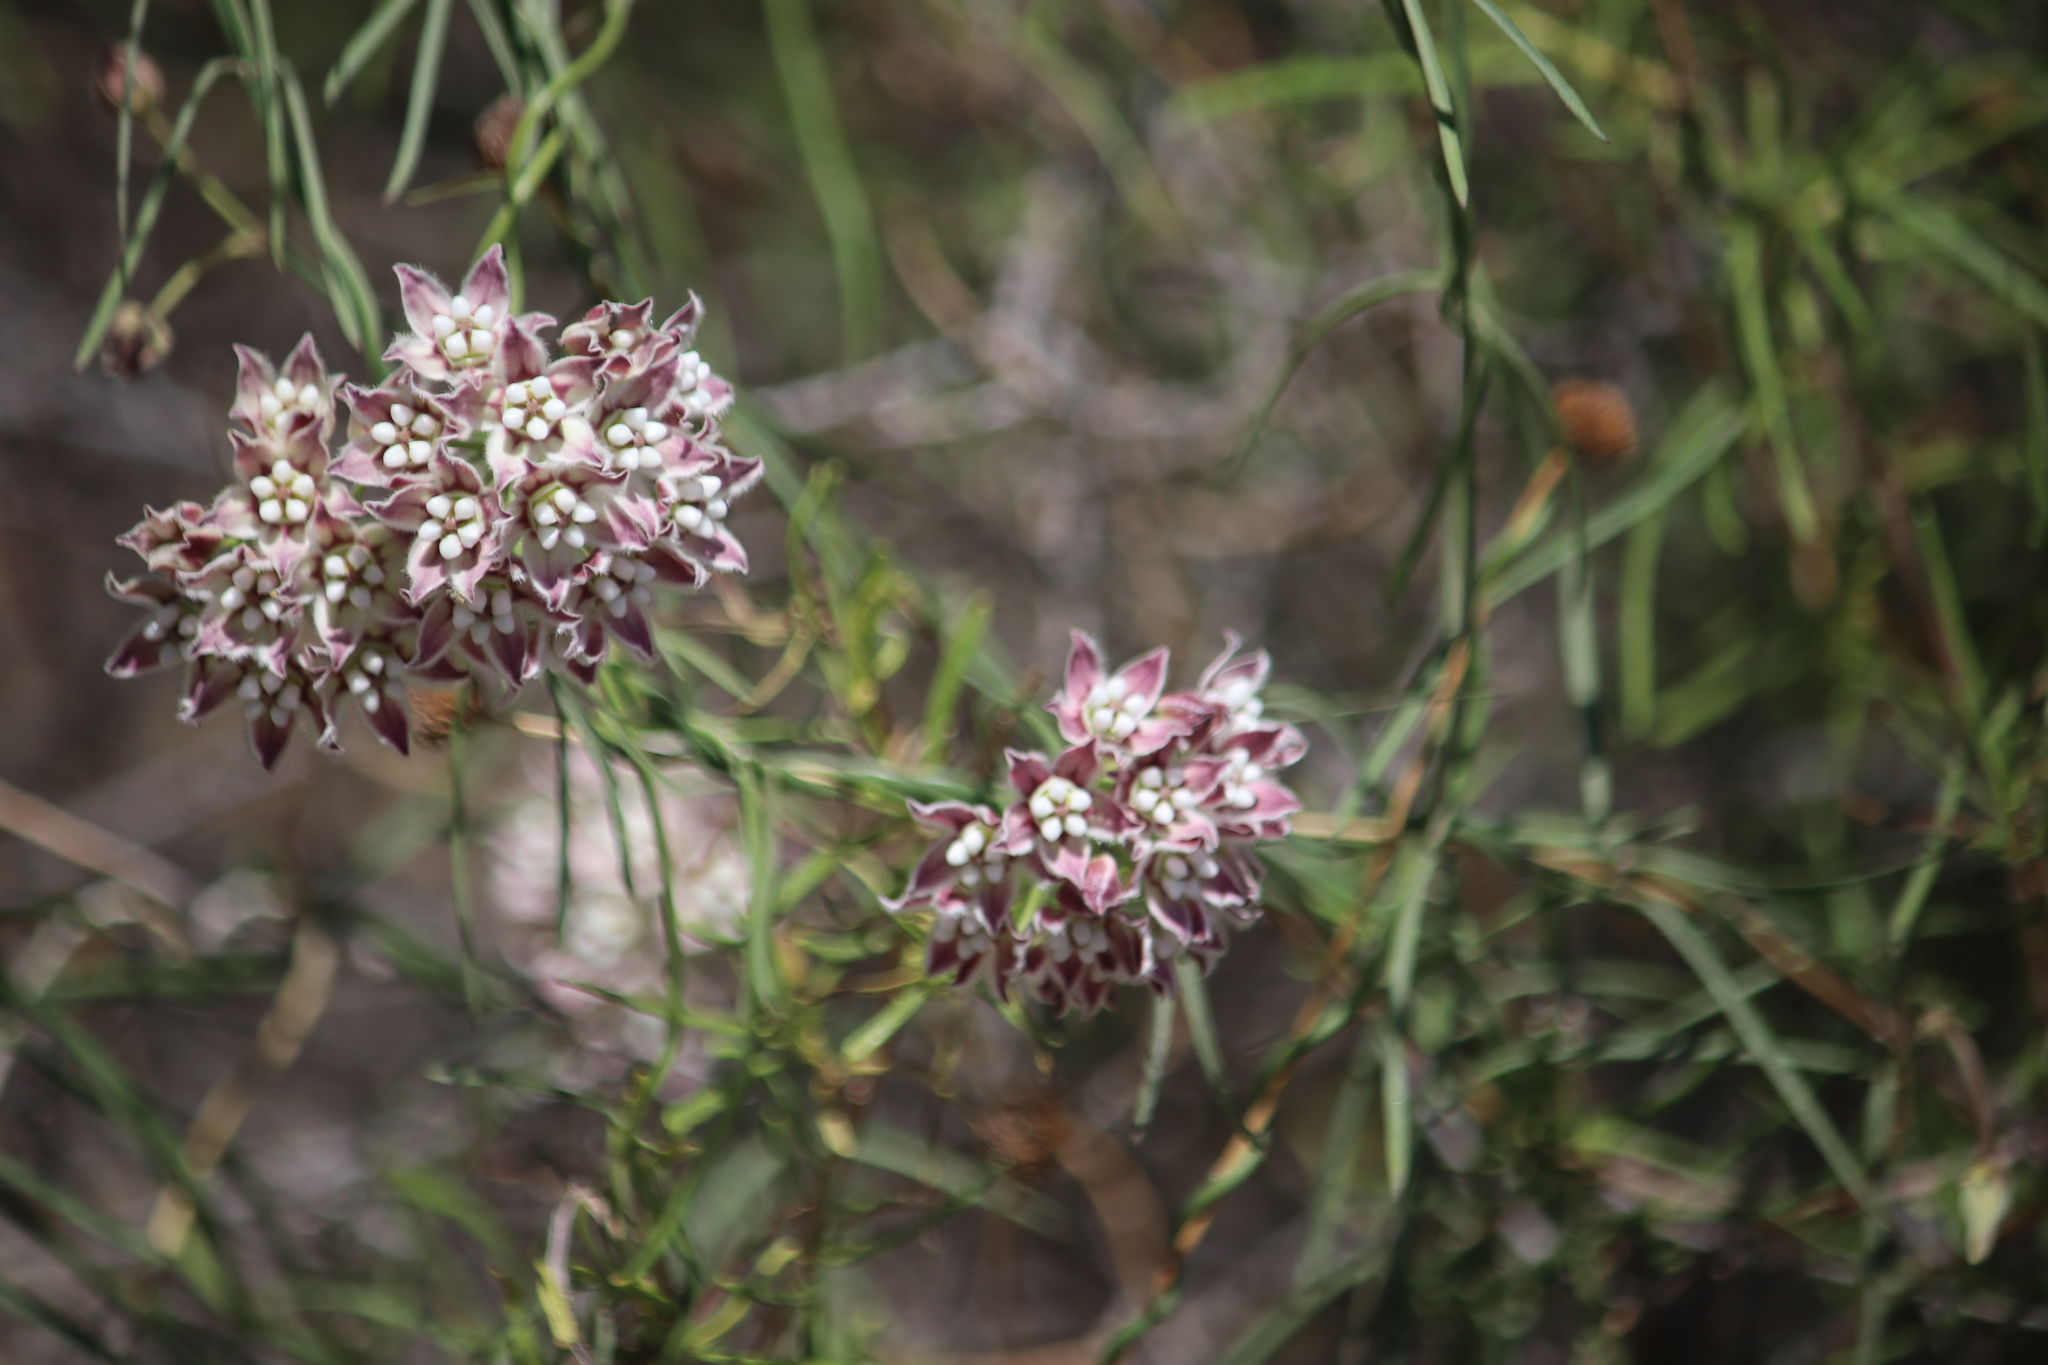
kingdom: Plantae
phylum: Tracheophyta
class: Magnoliopsida
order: Gentianales
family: Apocynaceae
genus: Funastrum
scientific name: Funastrum heterophyllum
